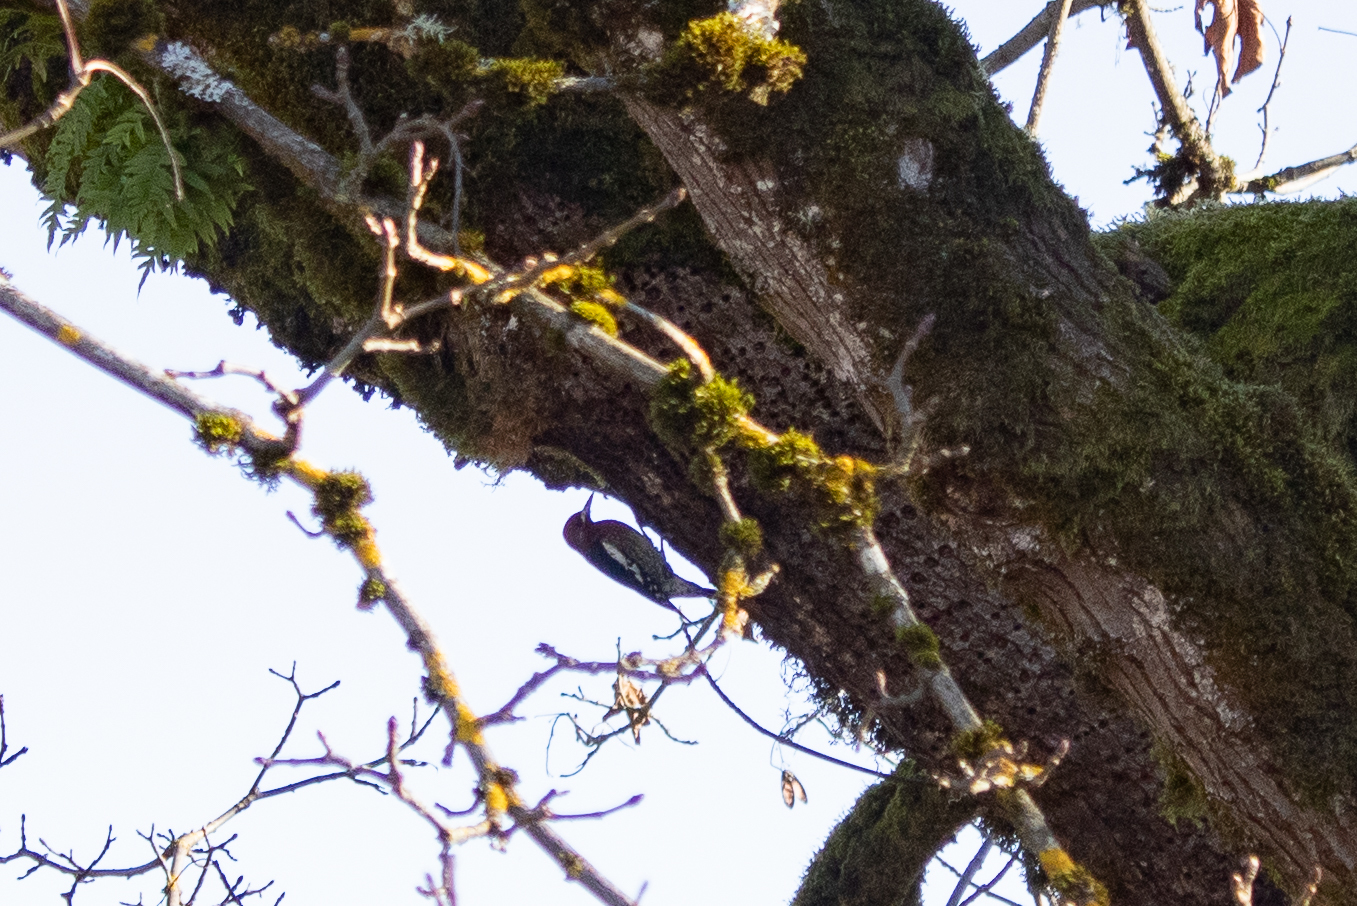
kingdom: Animalia
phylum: Chordata
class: Aves
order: Piciformes
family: Picidae
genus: Sphyrapicus
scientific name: Sphyrapicus ruber
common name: Red-breasted sapsucker
